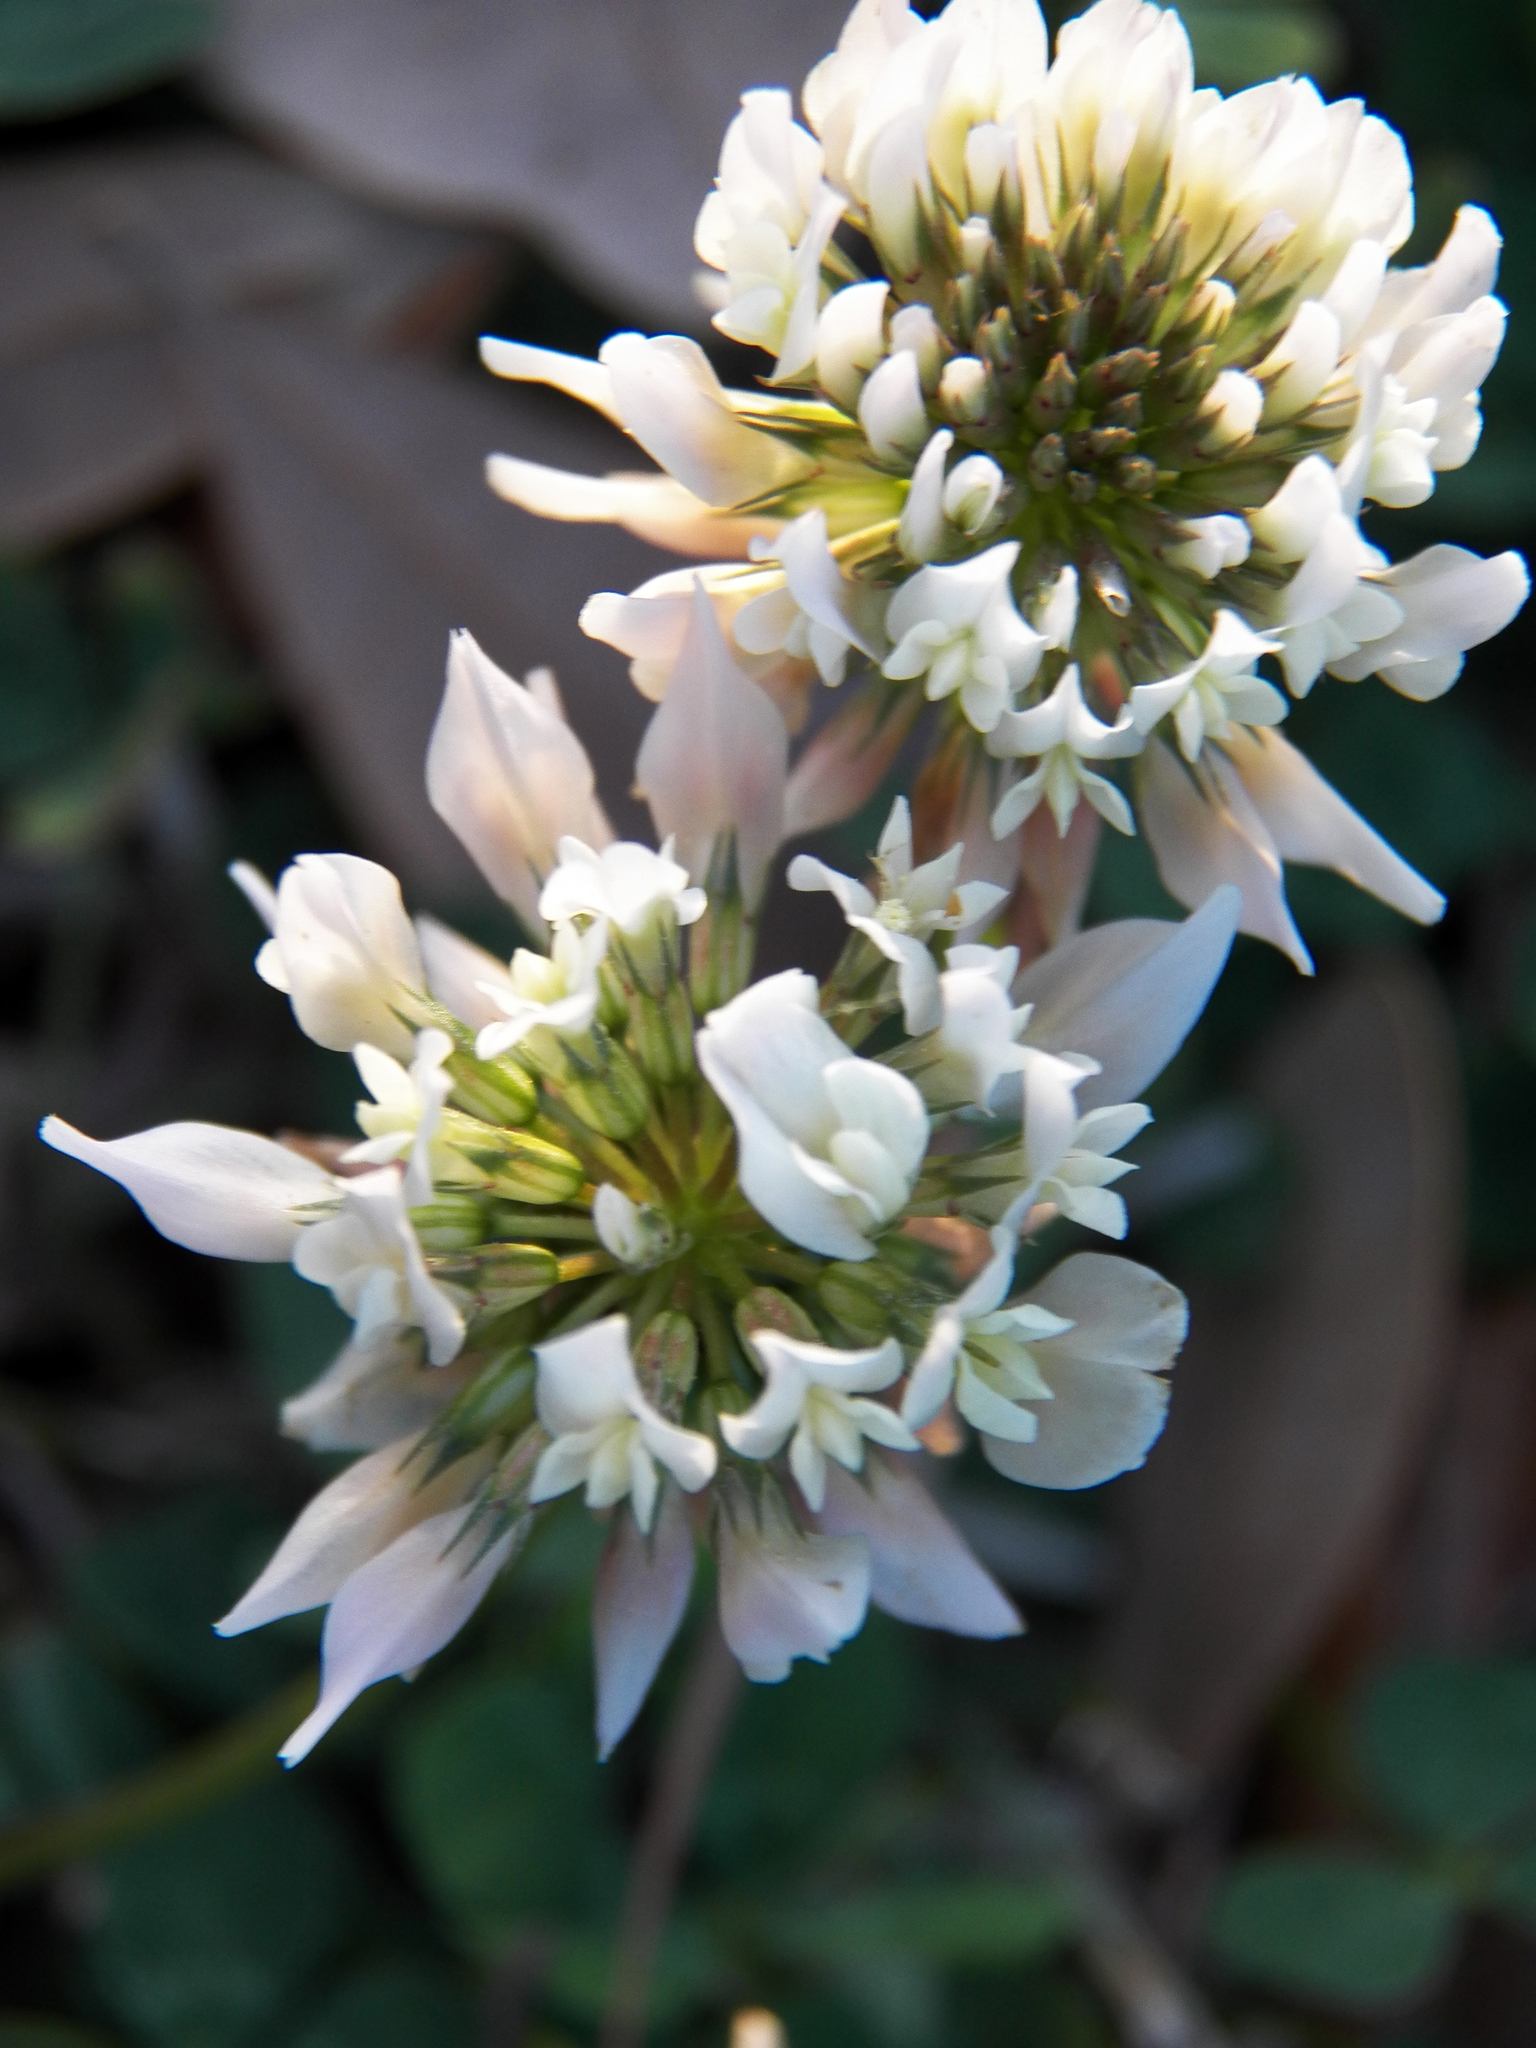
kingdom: Plantae
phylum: Tracheophyta
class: Magnoliopsida
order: Fabales
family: Fabaceae
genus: Trifolium
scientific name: Trifolium repens
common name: White clover
